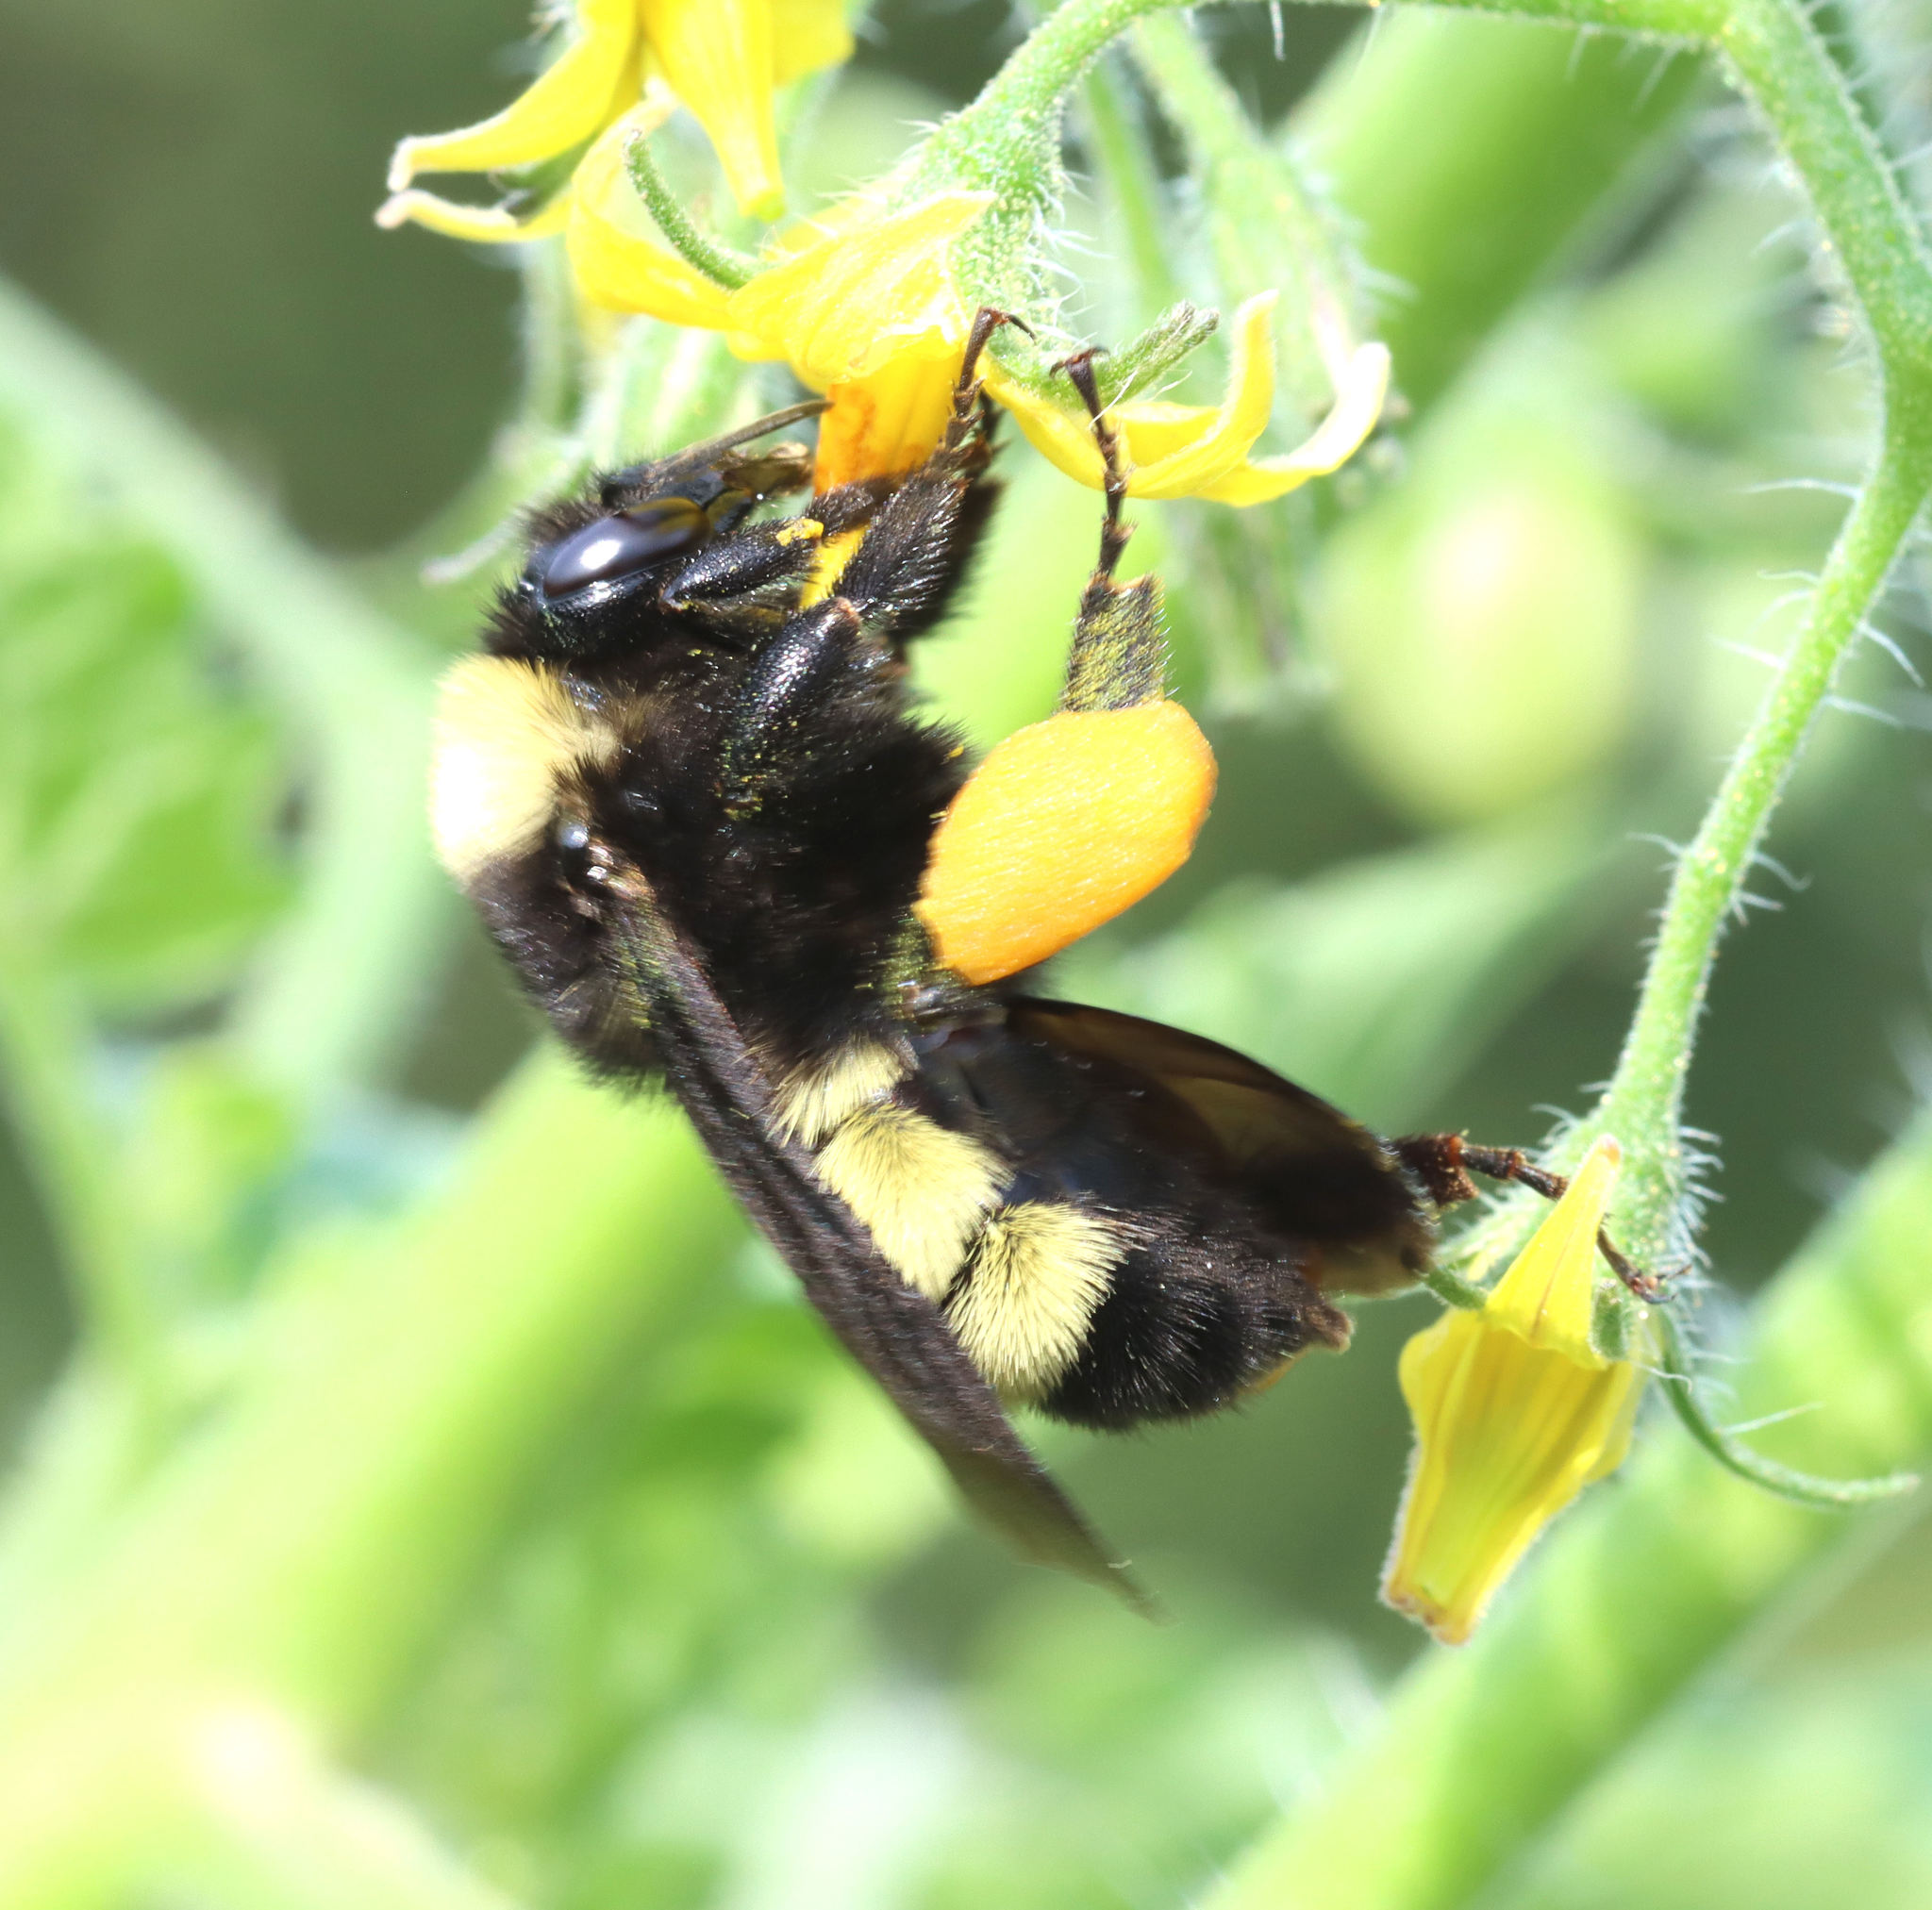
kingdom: Animalia
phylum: Arthropoda
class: Insecta
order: Hymenoptera
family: Apidae
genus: Bombus
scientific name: Bombus pensylvanicus
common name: Bumble bee
